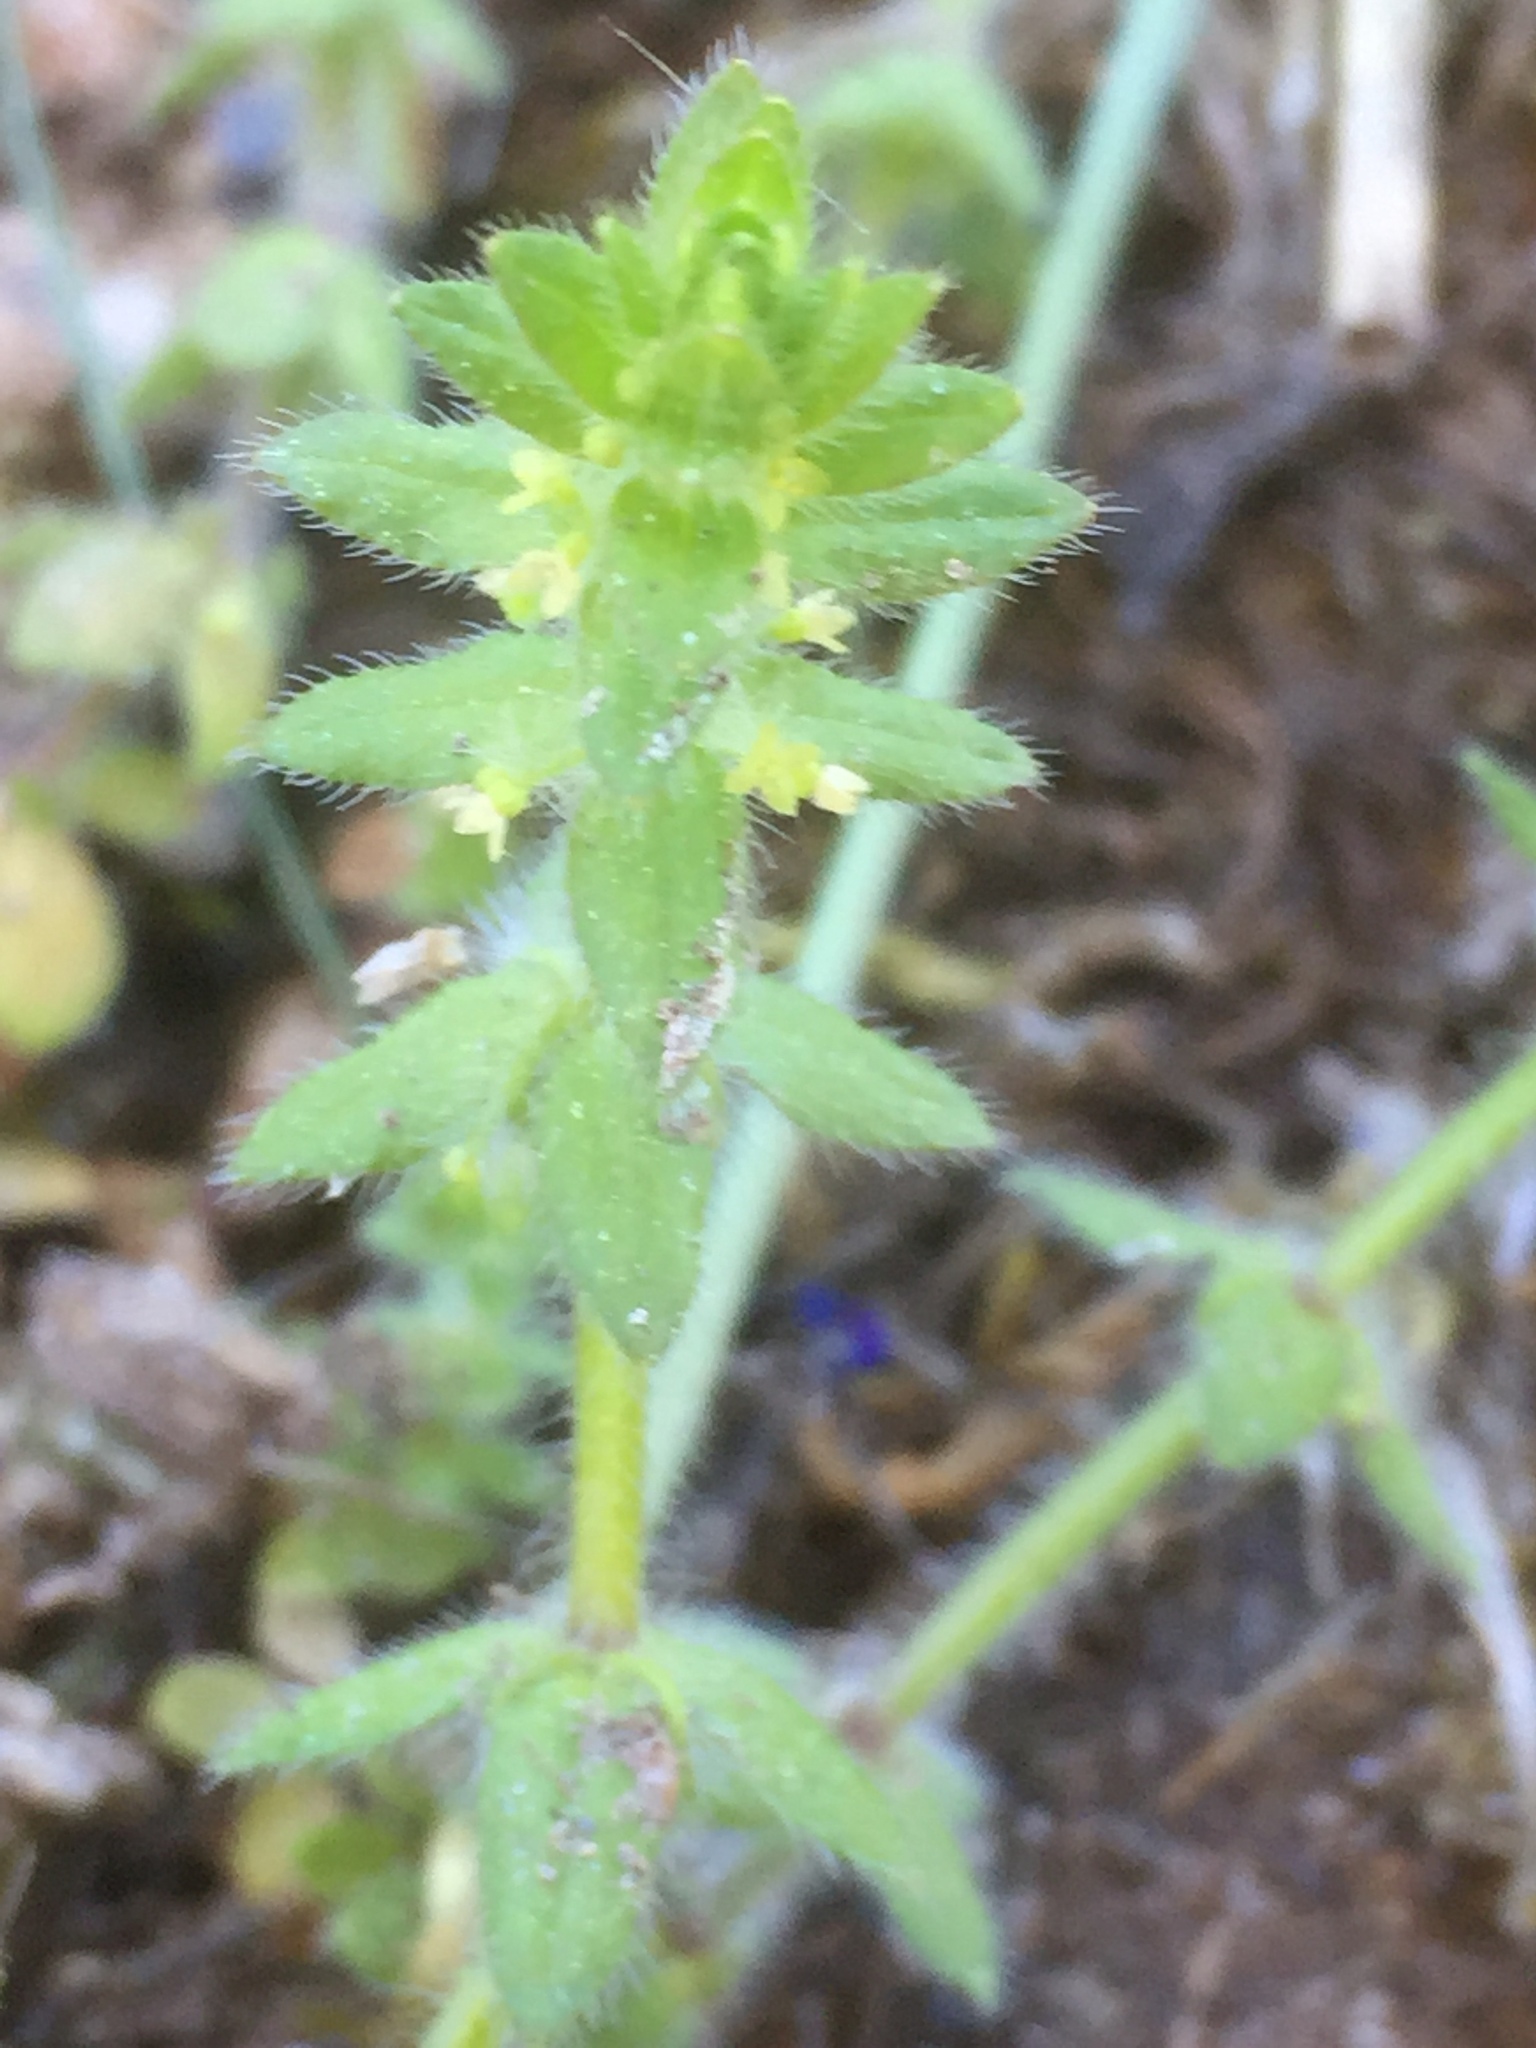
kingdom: Plantae
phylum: Tracheophyta
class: Magnoliopsida
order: Gentianales
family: Rubiaceae
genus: Cruciata
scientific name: Cruciata laevipes
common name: Crosswort
